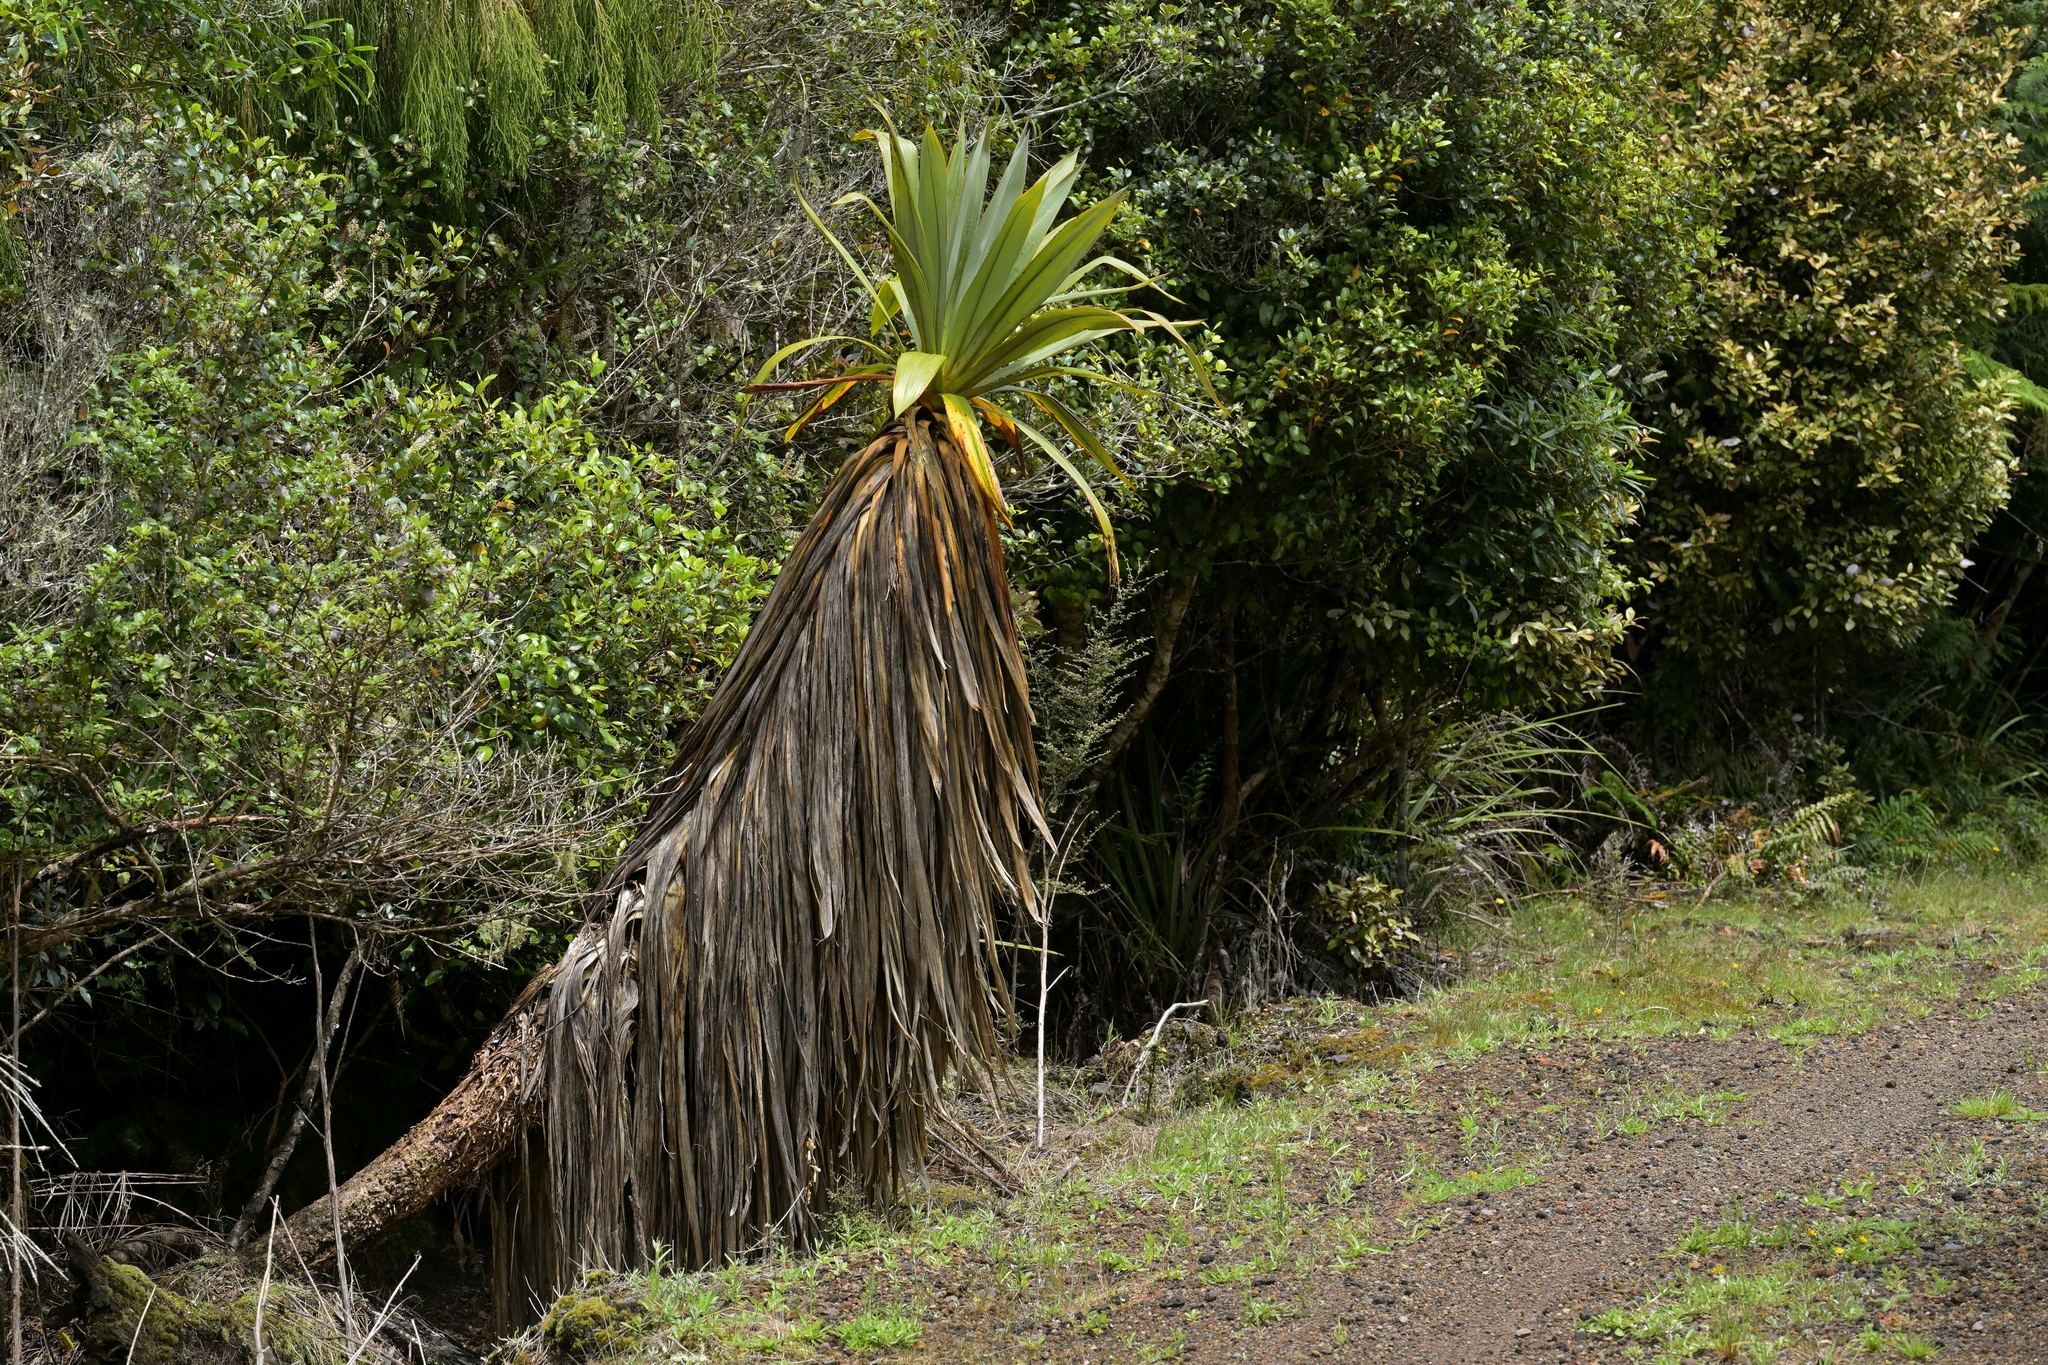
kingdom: Plantae
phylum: Tracheophyta
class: Liliopsida
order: Asparagales
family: Asparagaceae
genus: Cordyline
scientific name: Cordyline indivisa
